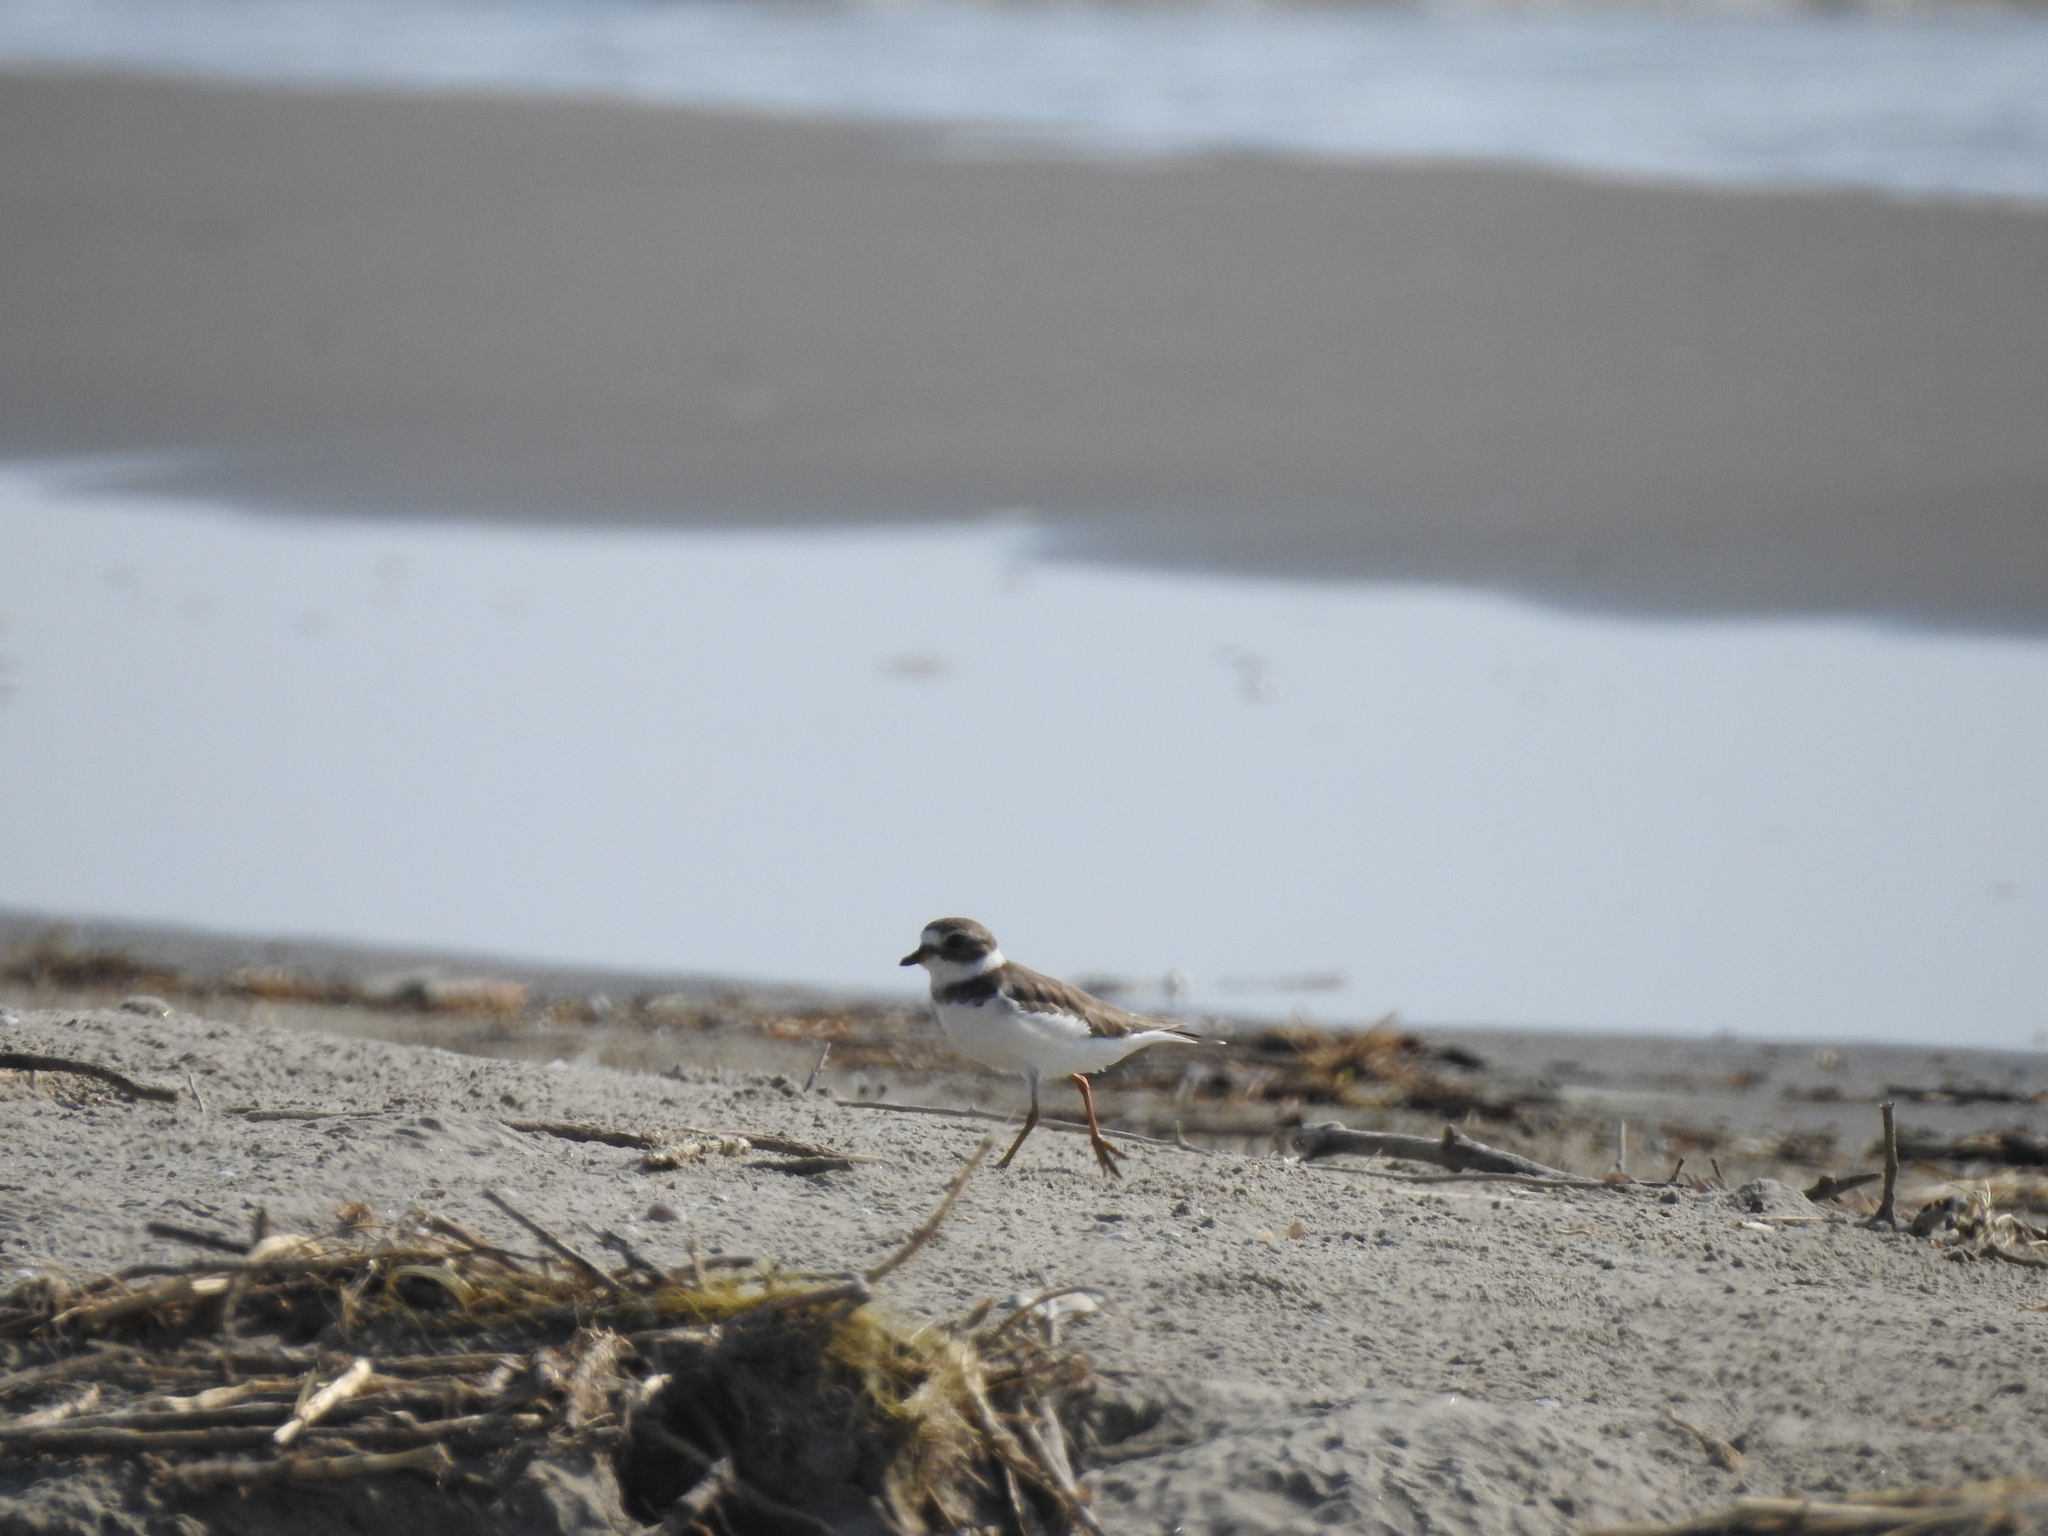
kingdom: Animalia
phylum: Chordata
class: Aves
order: Charadriiformes
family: Charadriidae
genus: Charadrius
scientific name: Charadrius semipalmatus
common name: Semipalmated plover
